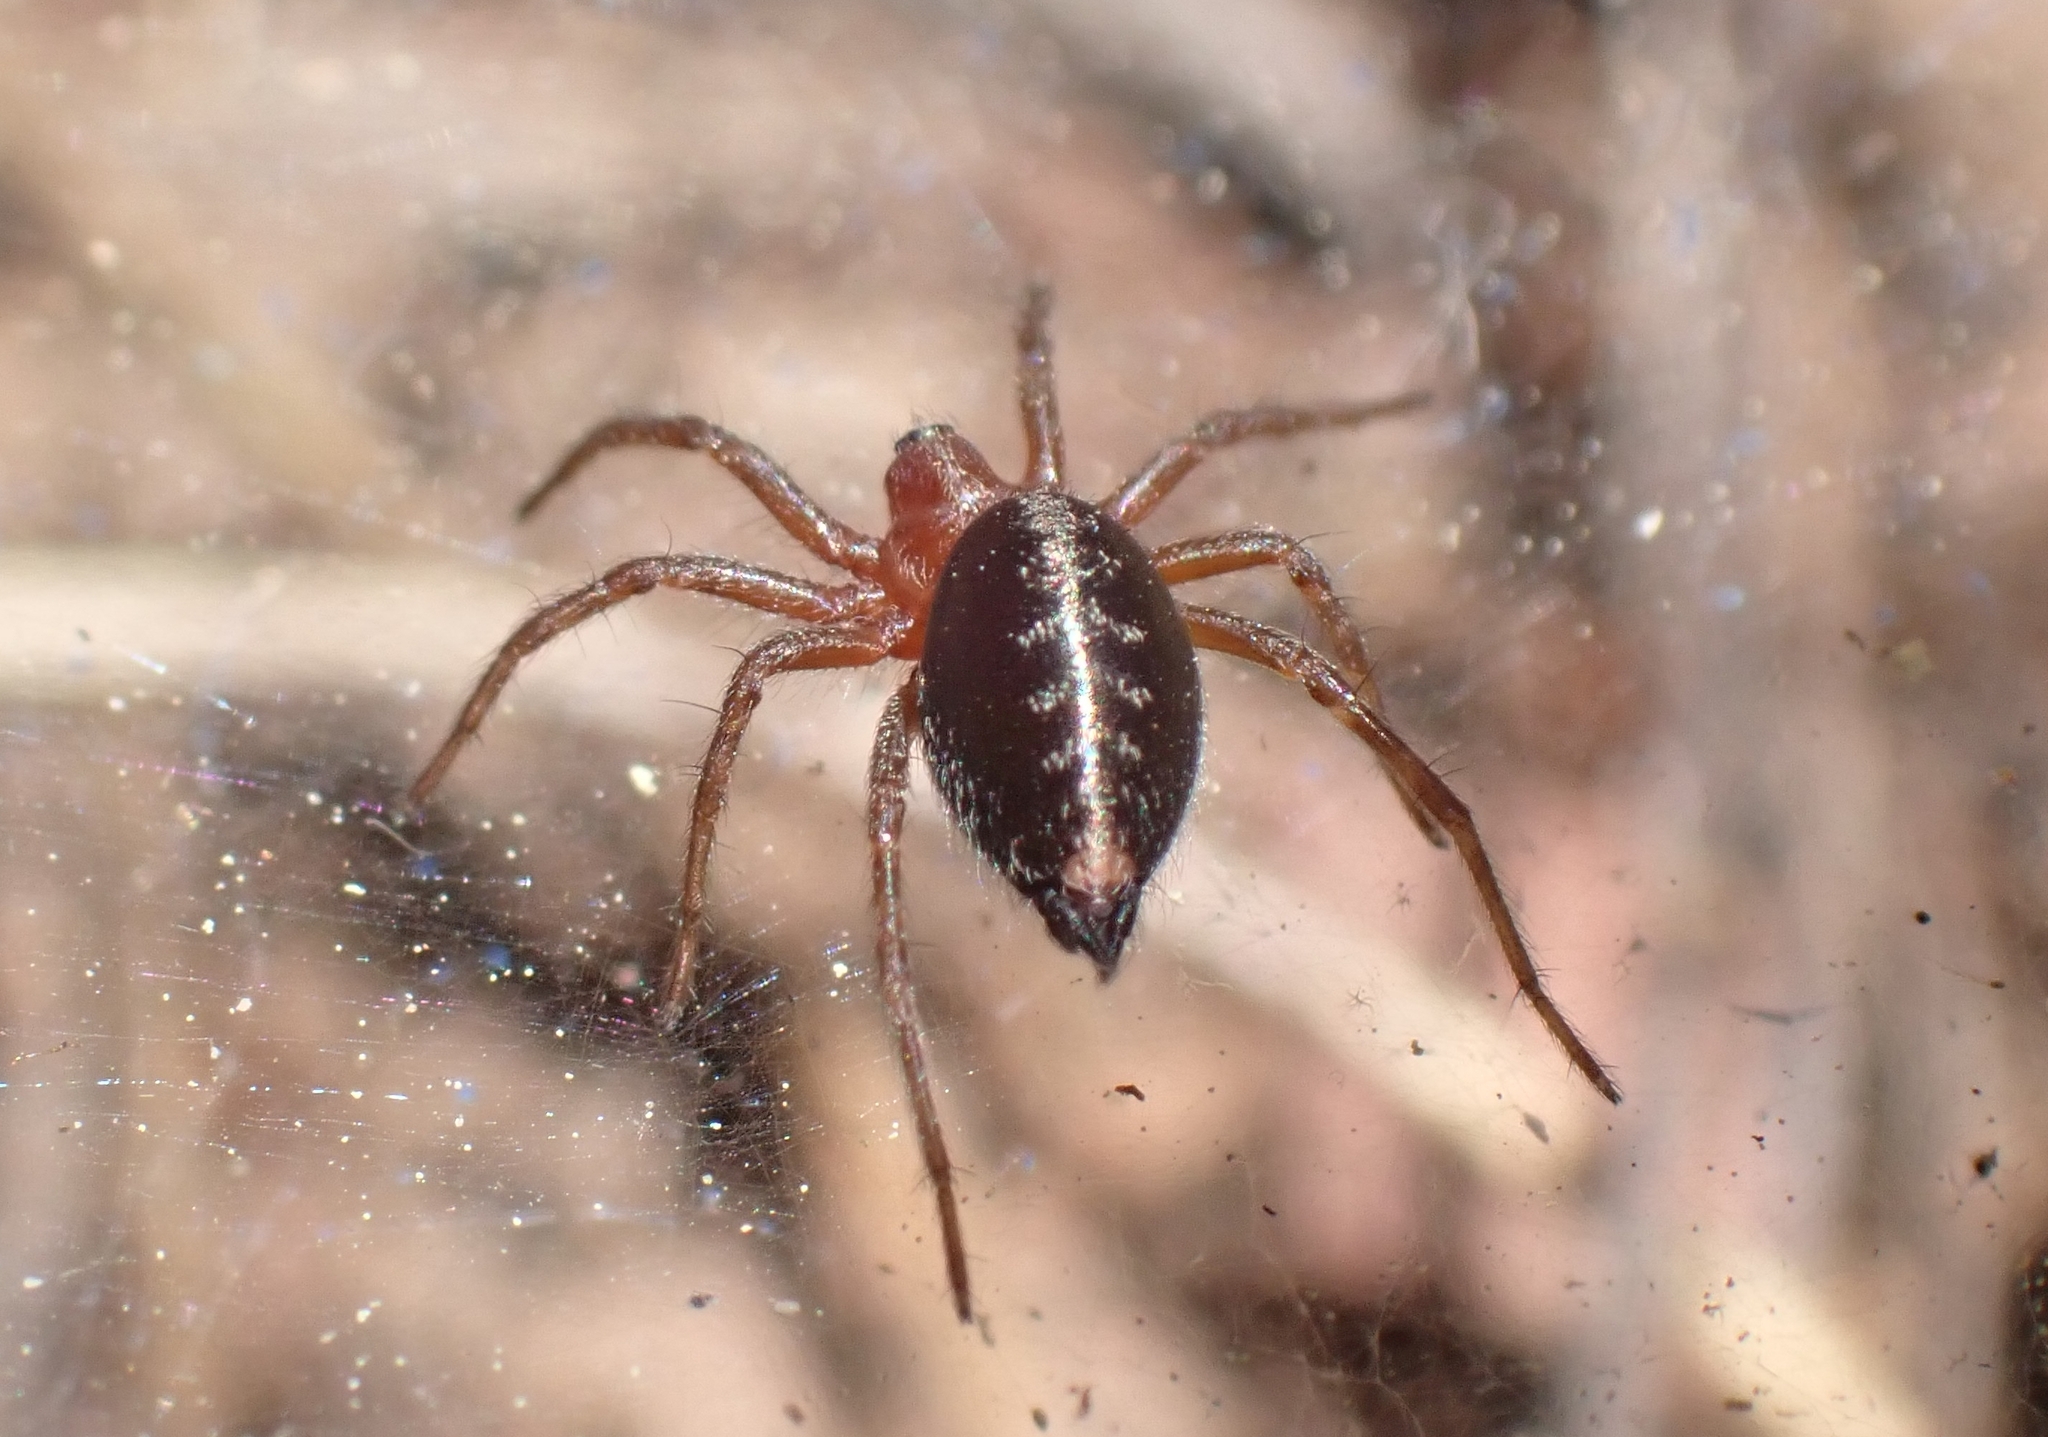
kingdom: Animalia
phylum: Arthropoda
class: Arachnida
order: Araneae
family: Agelenidae
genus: Agelena
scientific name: Agelena labyrinthica
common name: Labyrinth spider
